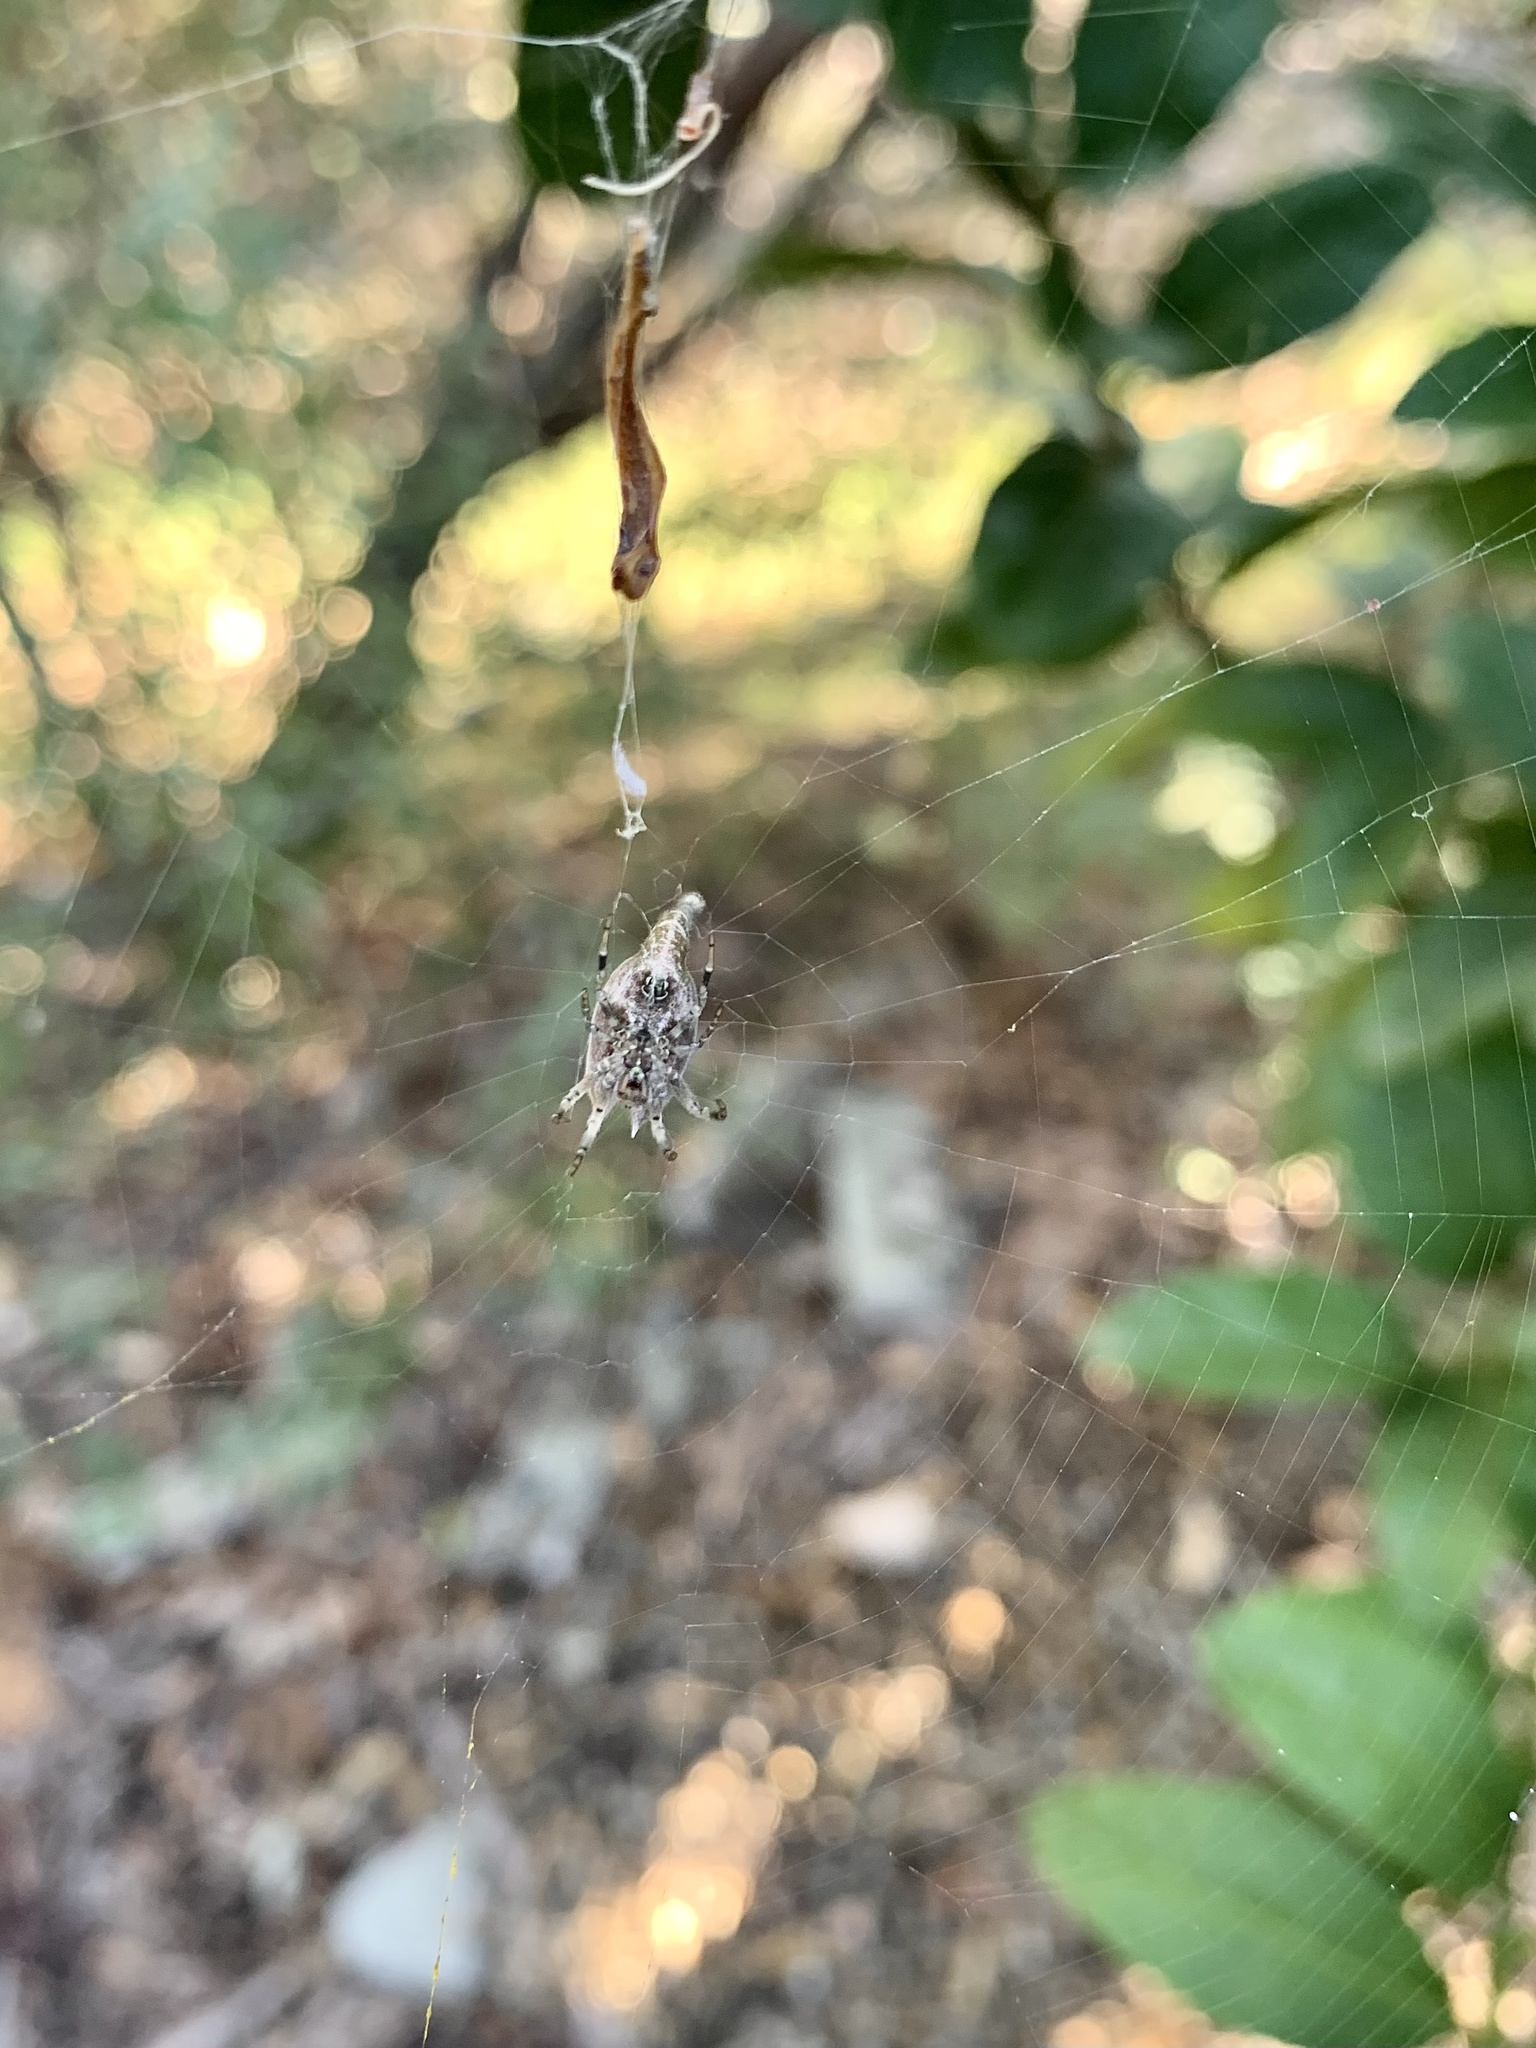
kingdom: Animalia
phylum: Arthropoda
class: Arachnida
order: Araneae
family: Araneidae
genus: Arachnura
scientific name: Arachnura higginsi
